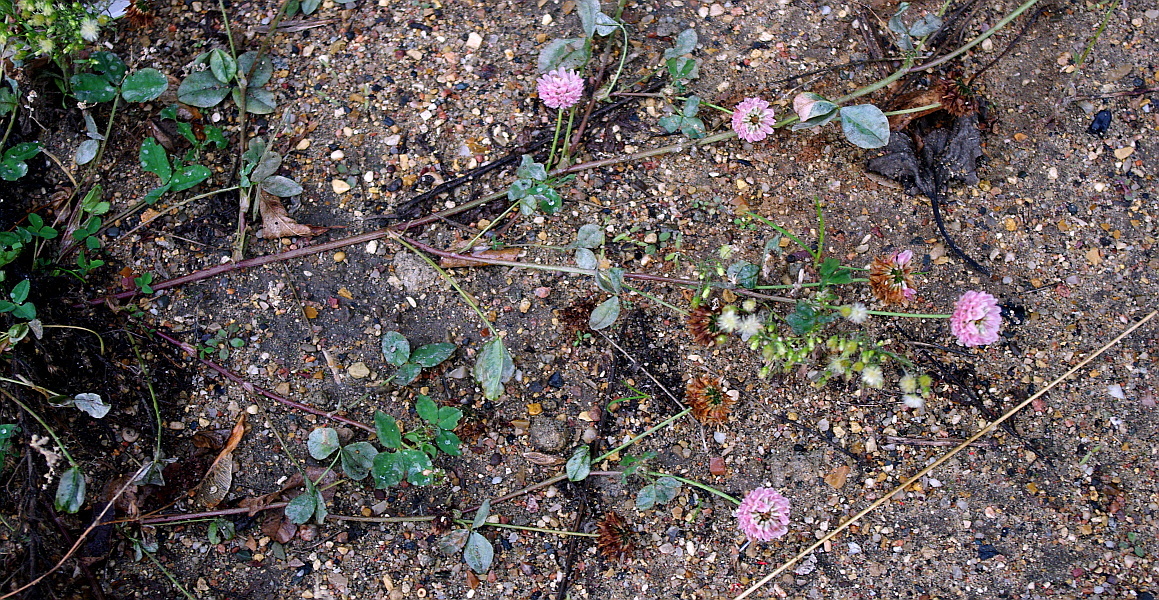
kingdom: Plantae
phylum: Tracheophyta
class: Magnoliopsida
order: Fabales
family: Fabaceae
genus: Trifolium
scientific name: Trifolium pratense
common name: Red clover
